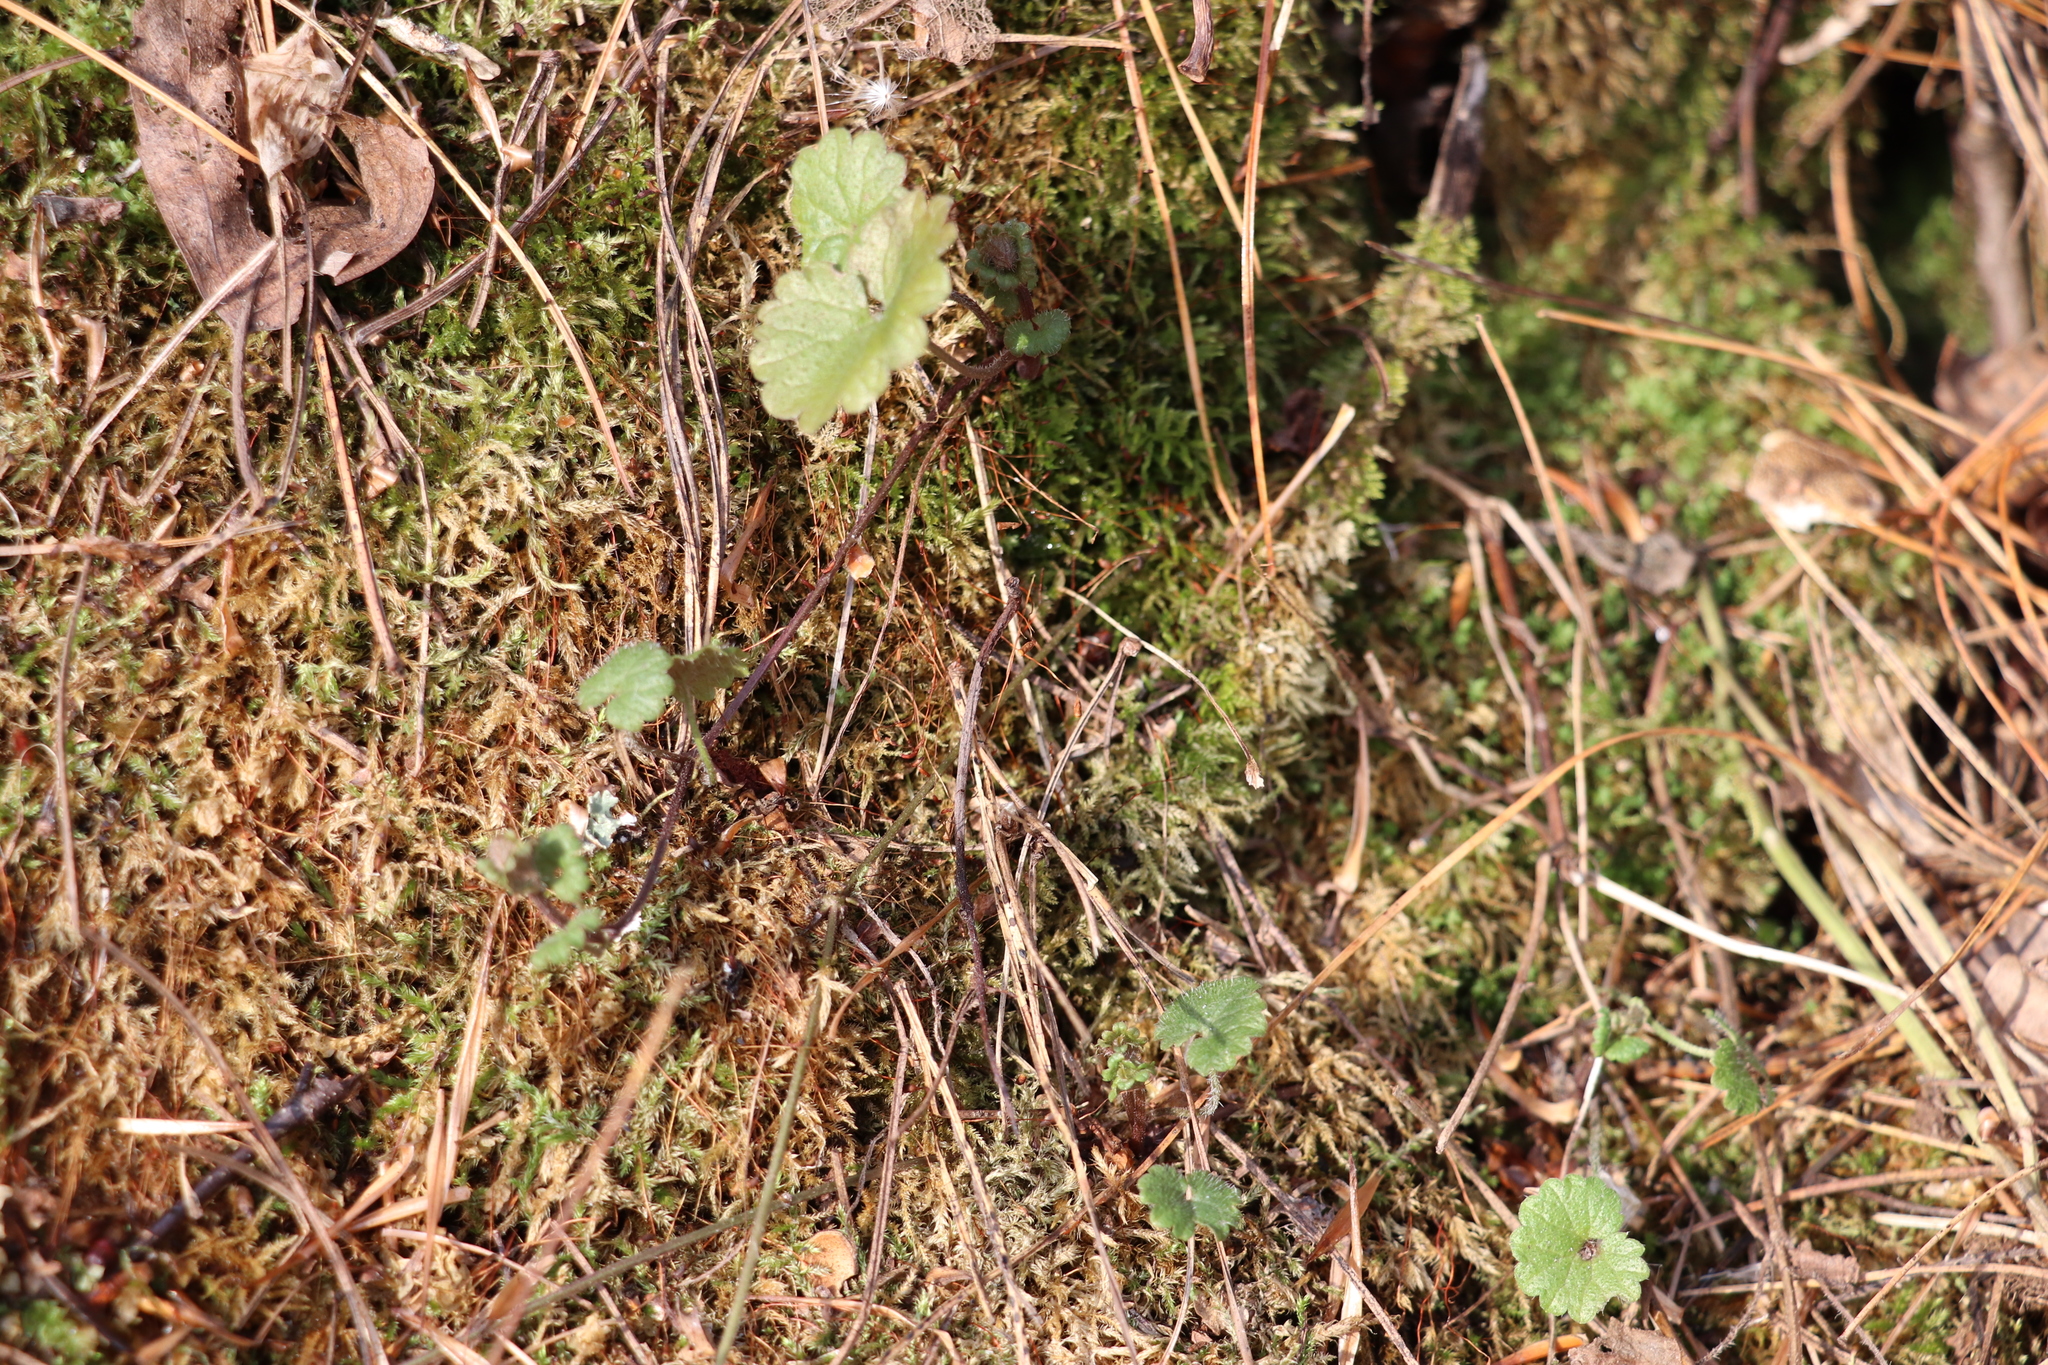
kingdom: Plantae
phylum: Tracheophyta
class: Magnoliopsida
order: Lamiales
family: Lamiaceae
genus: Glechoma
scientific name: Glechoma hederacea
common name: Ground ivy
